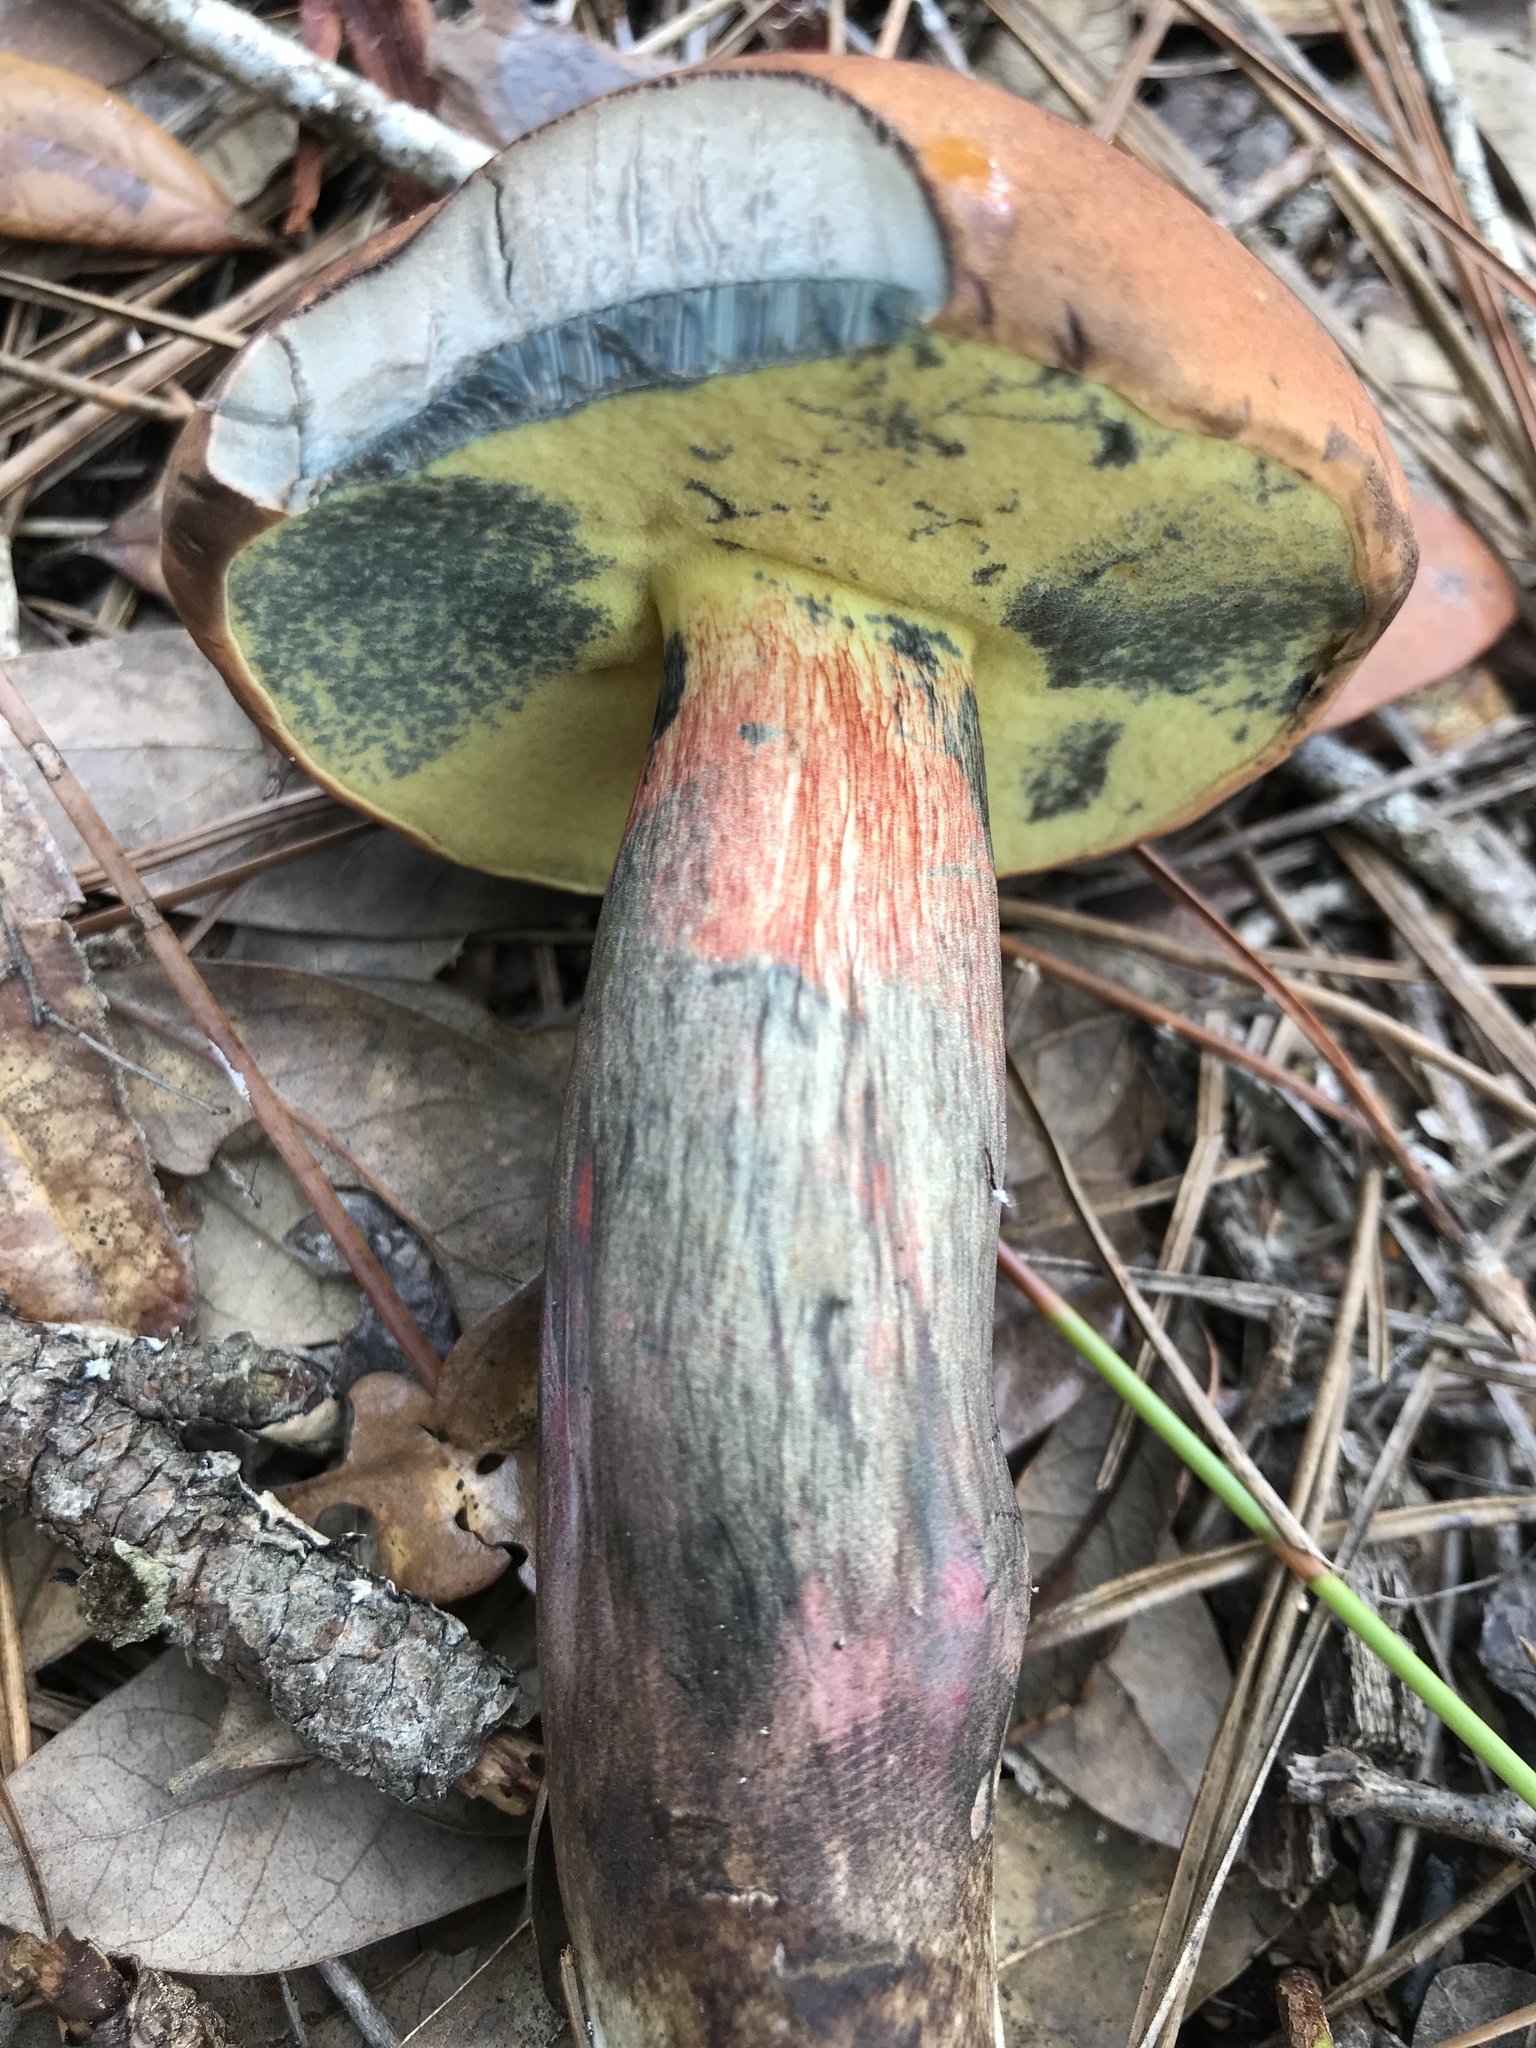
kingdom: Fungi
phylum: Basidiomycota
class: Agaricomycetes
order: Boletales
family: Boletaceae
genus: Boletus
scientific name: Boletus
